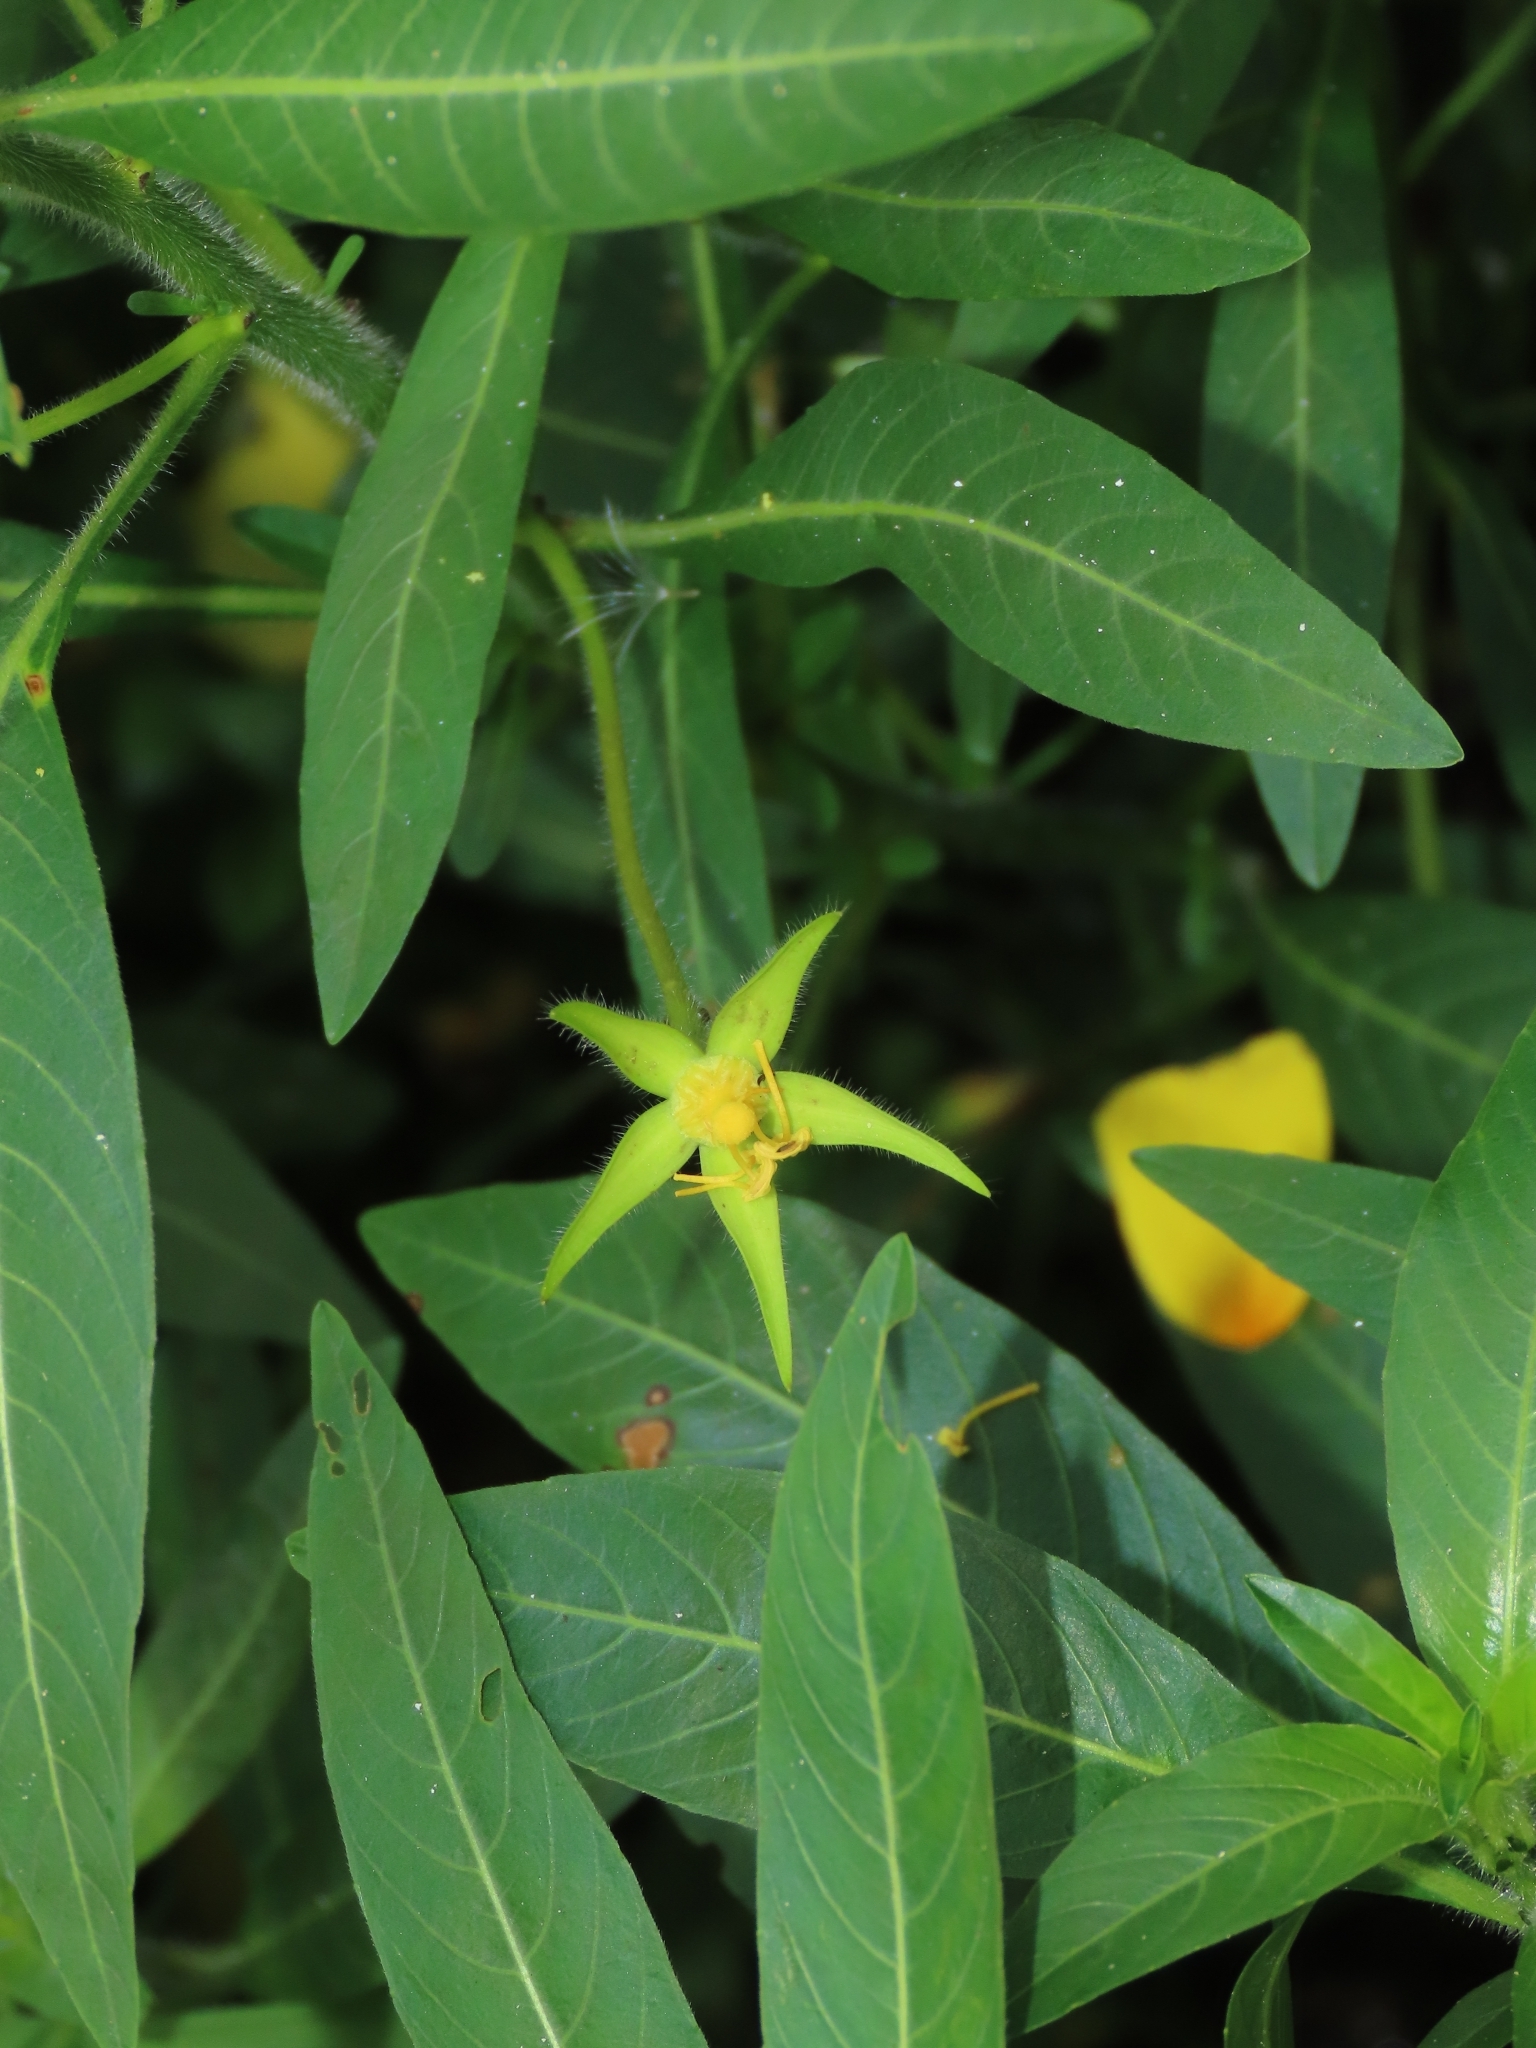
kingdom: Plantae
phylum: Tracheophyta
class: Magnoliopsida
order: Myrtales
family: Onagraceae
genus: Ludwigia
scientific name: Ludwigia hexapetala
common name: Water-primrose
